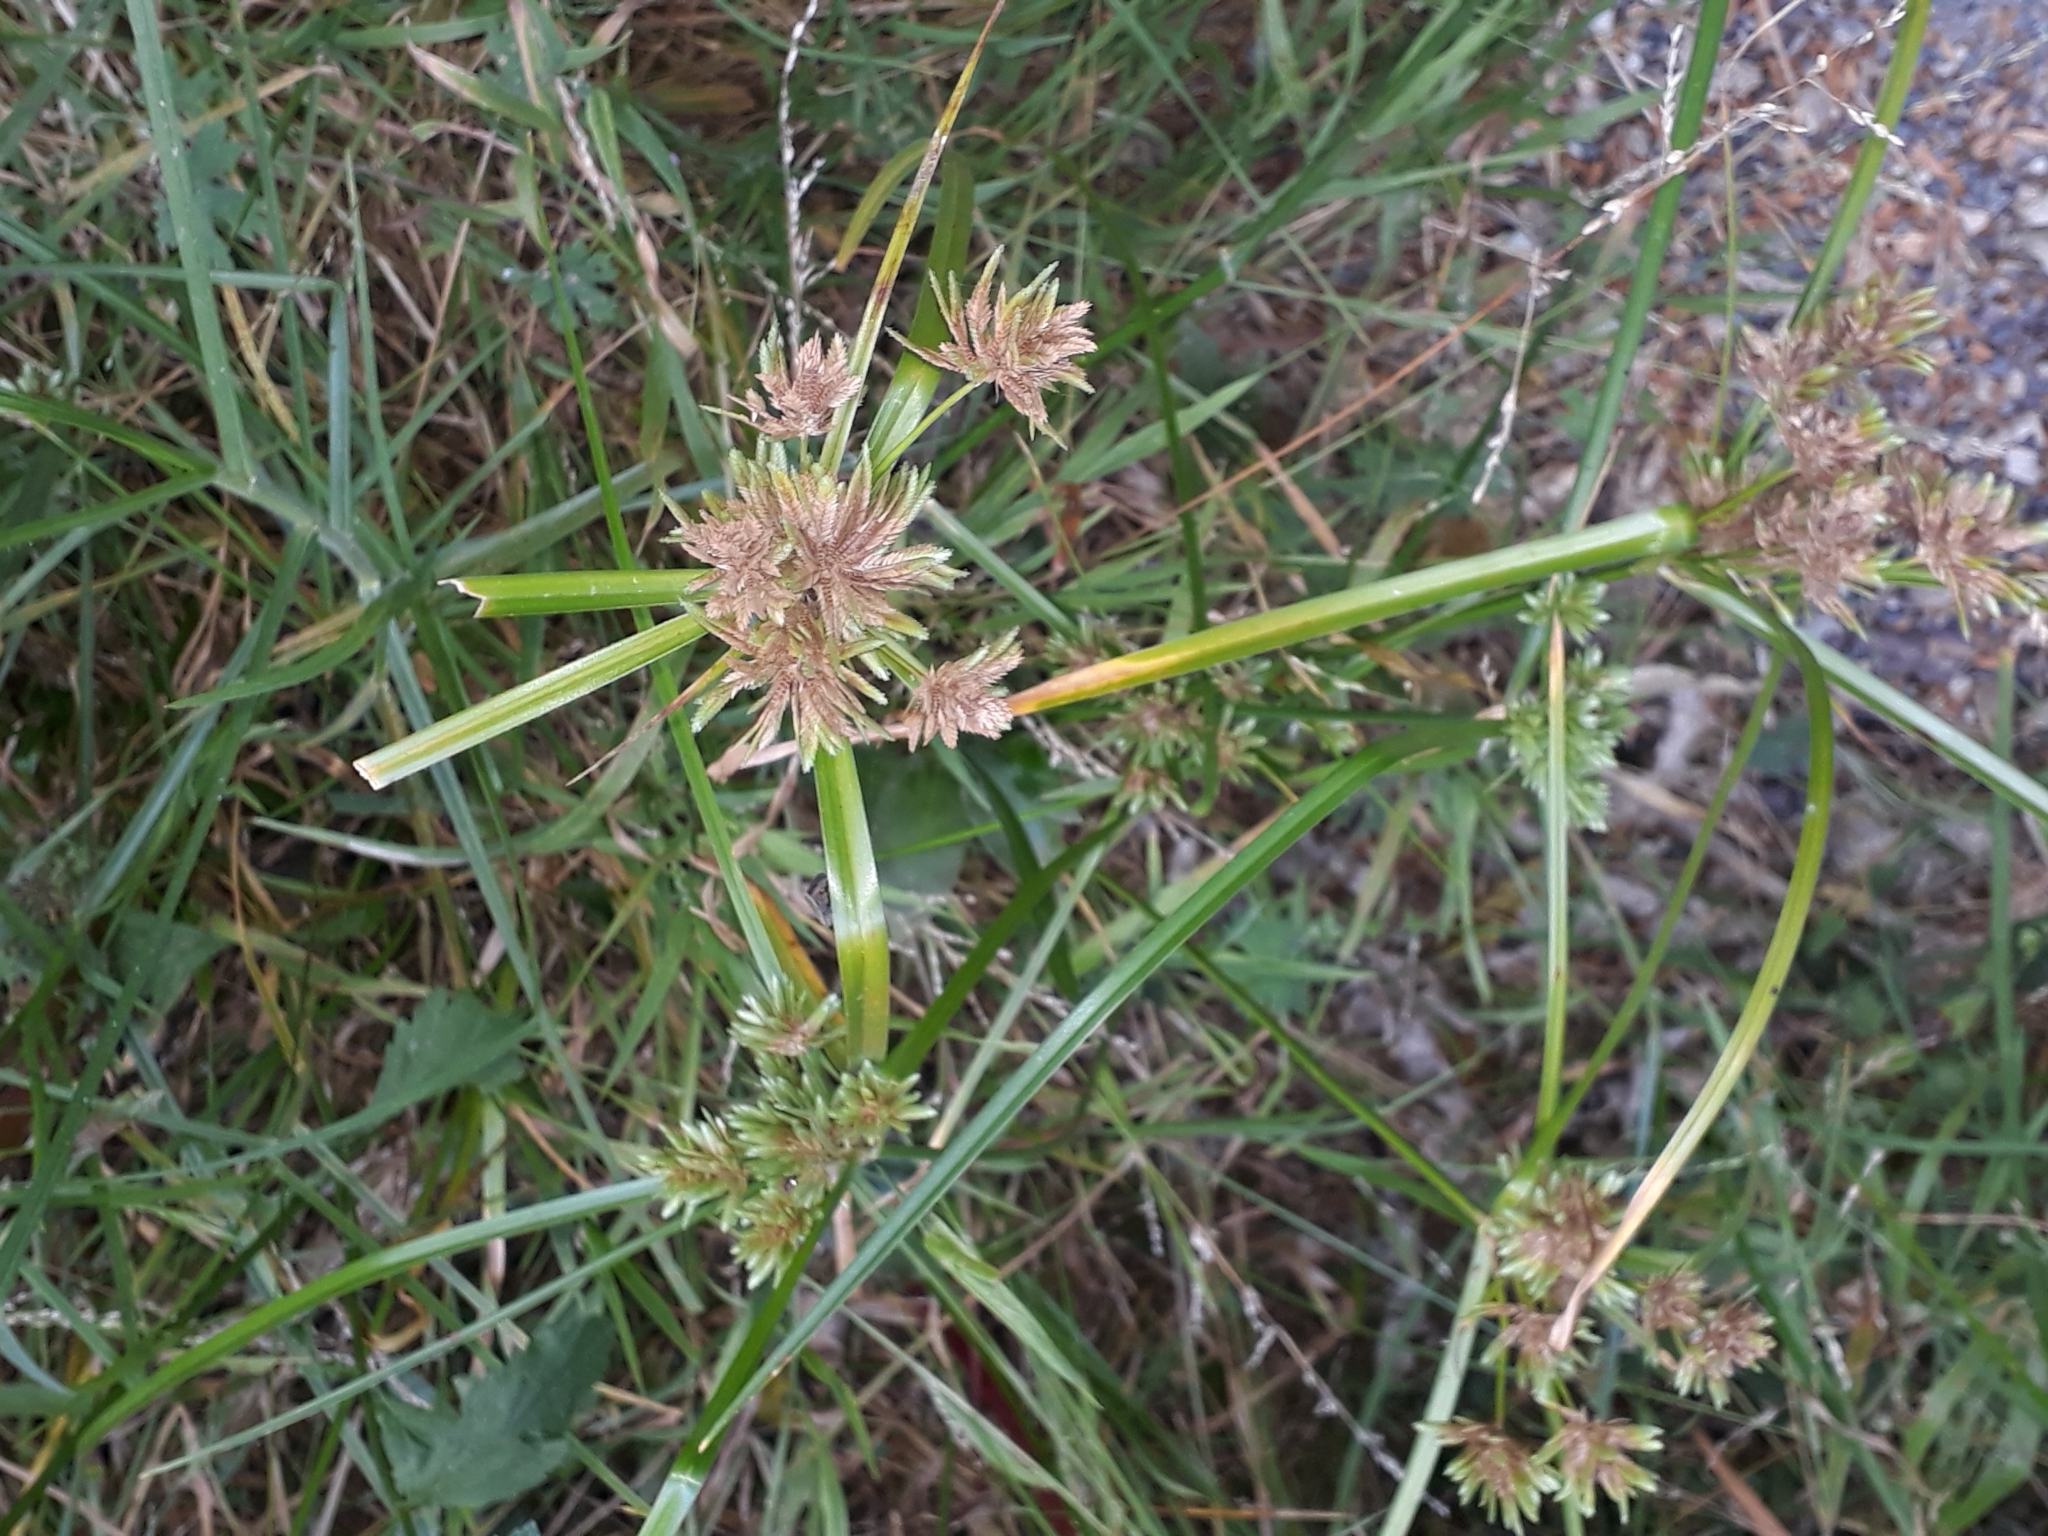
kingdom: Plantae
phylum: Tracheophyta
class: Liliopsida
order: Poales
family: Cyperaceae
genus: Cyperus
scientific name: Cyperus eragrostis
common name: Tall flatsedge
